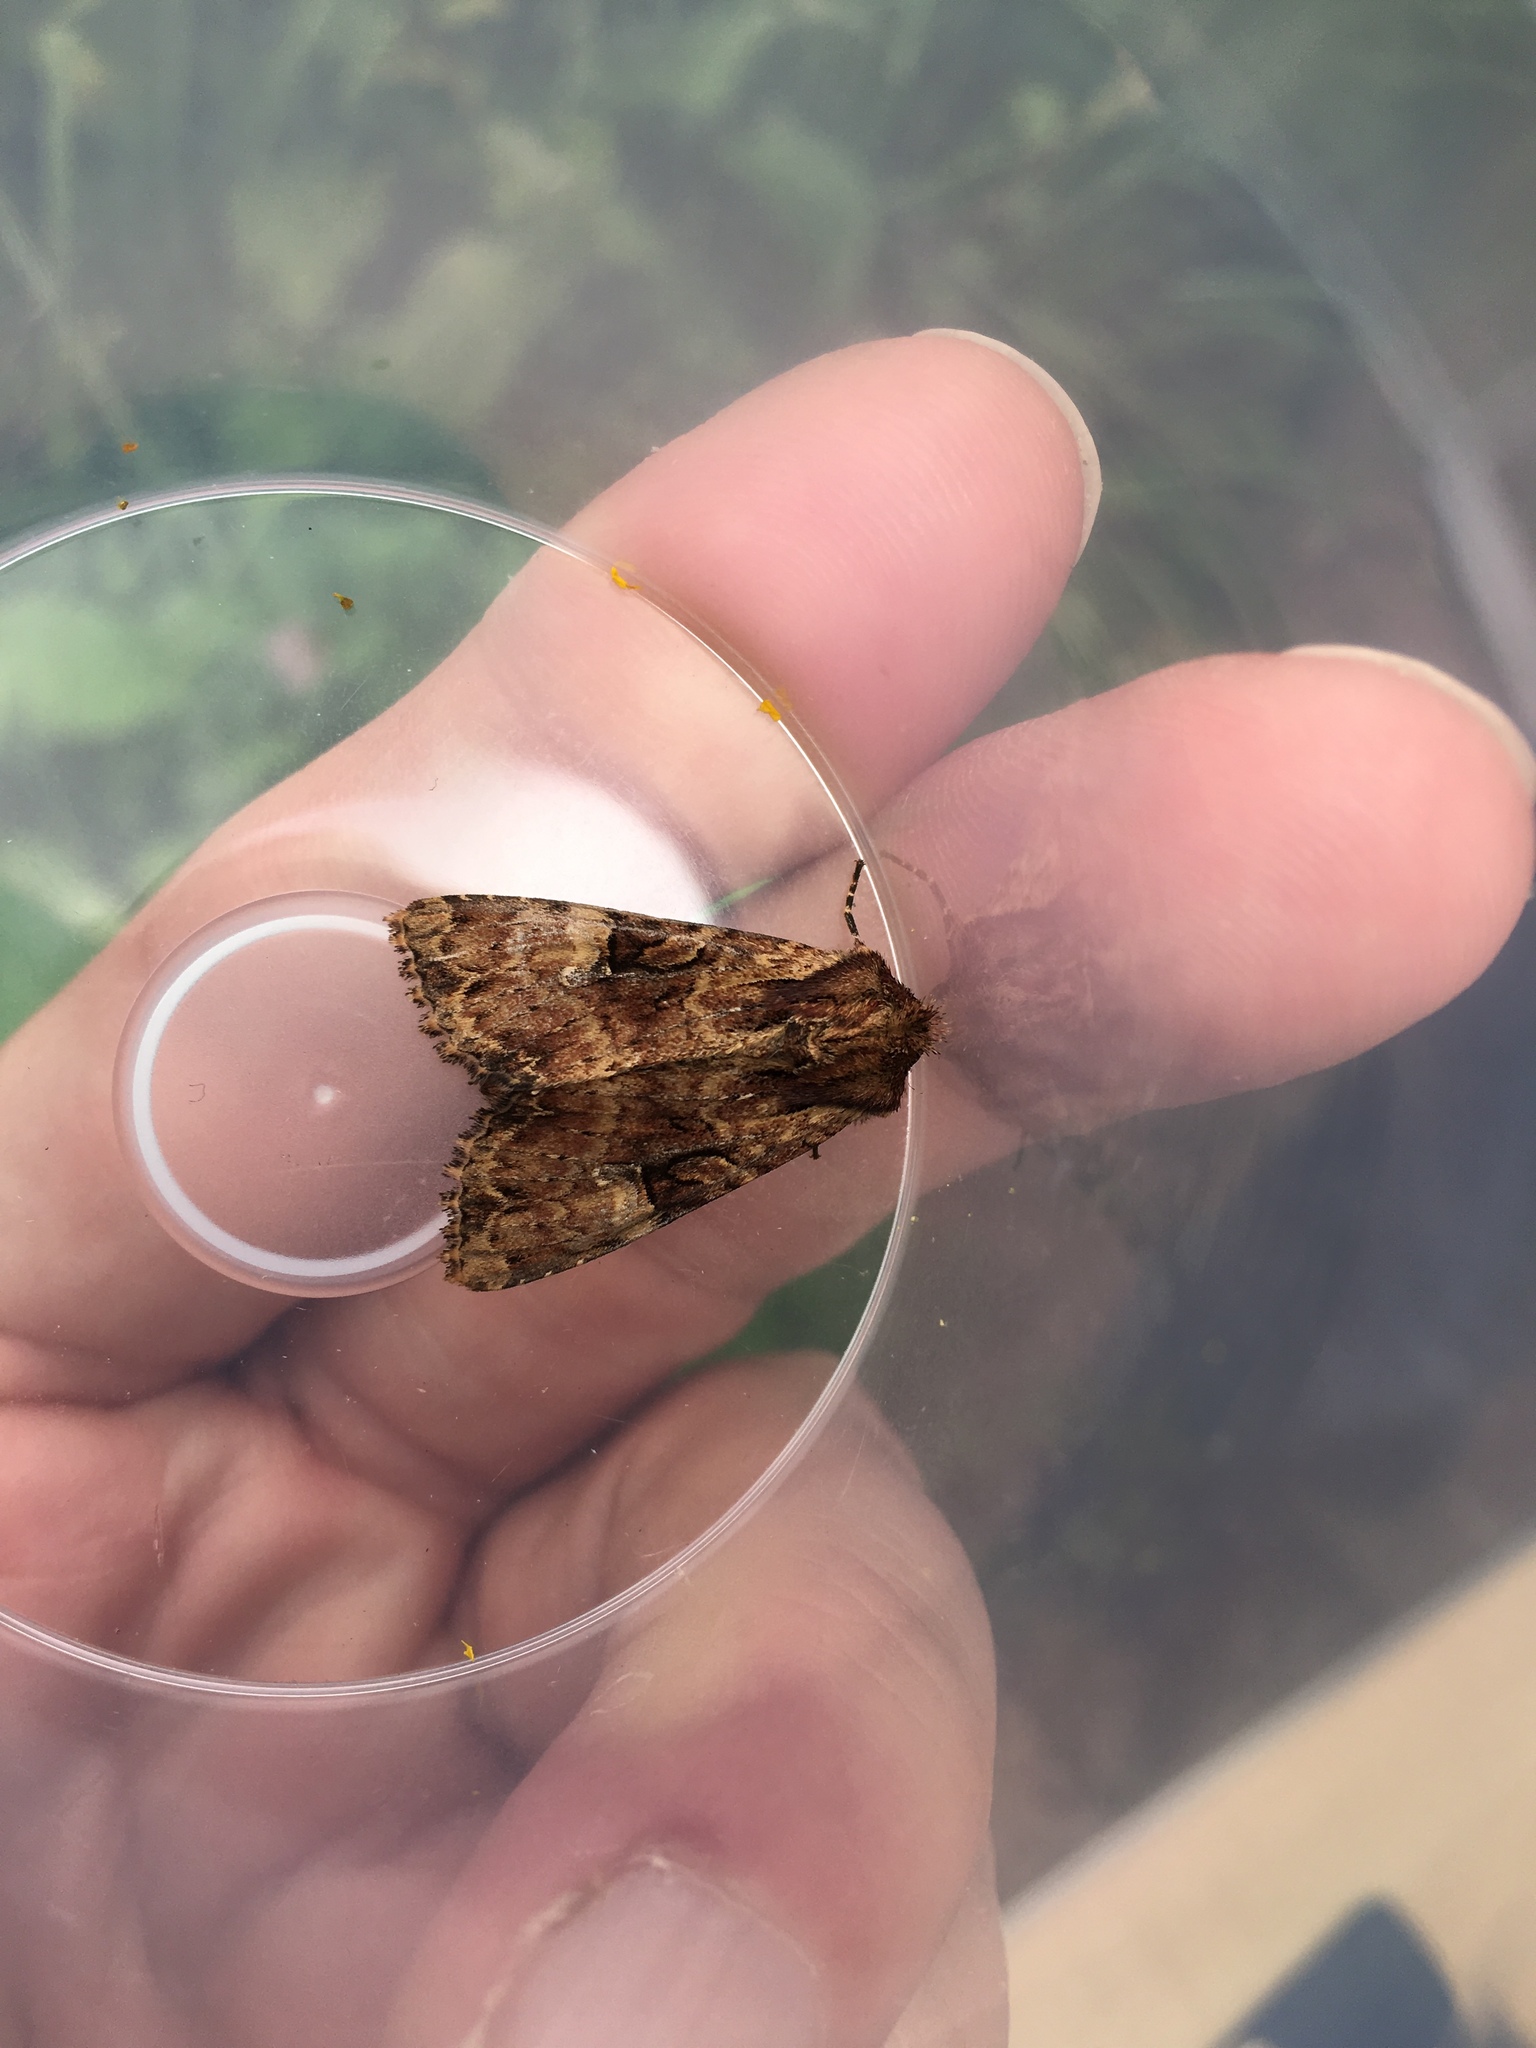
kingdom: Animalia
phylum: Arthropoda
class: Insecta
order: Lepidoptera
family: Noctuidae
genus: Apamea
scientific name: Apamea epomidion
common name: Clouded brindle
